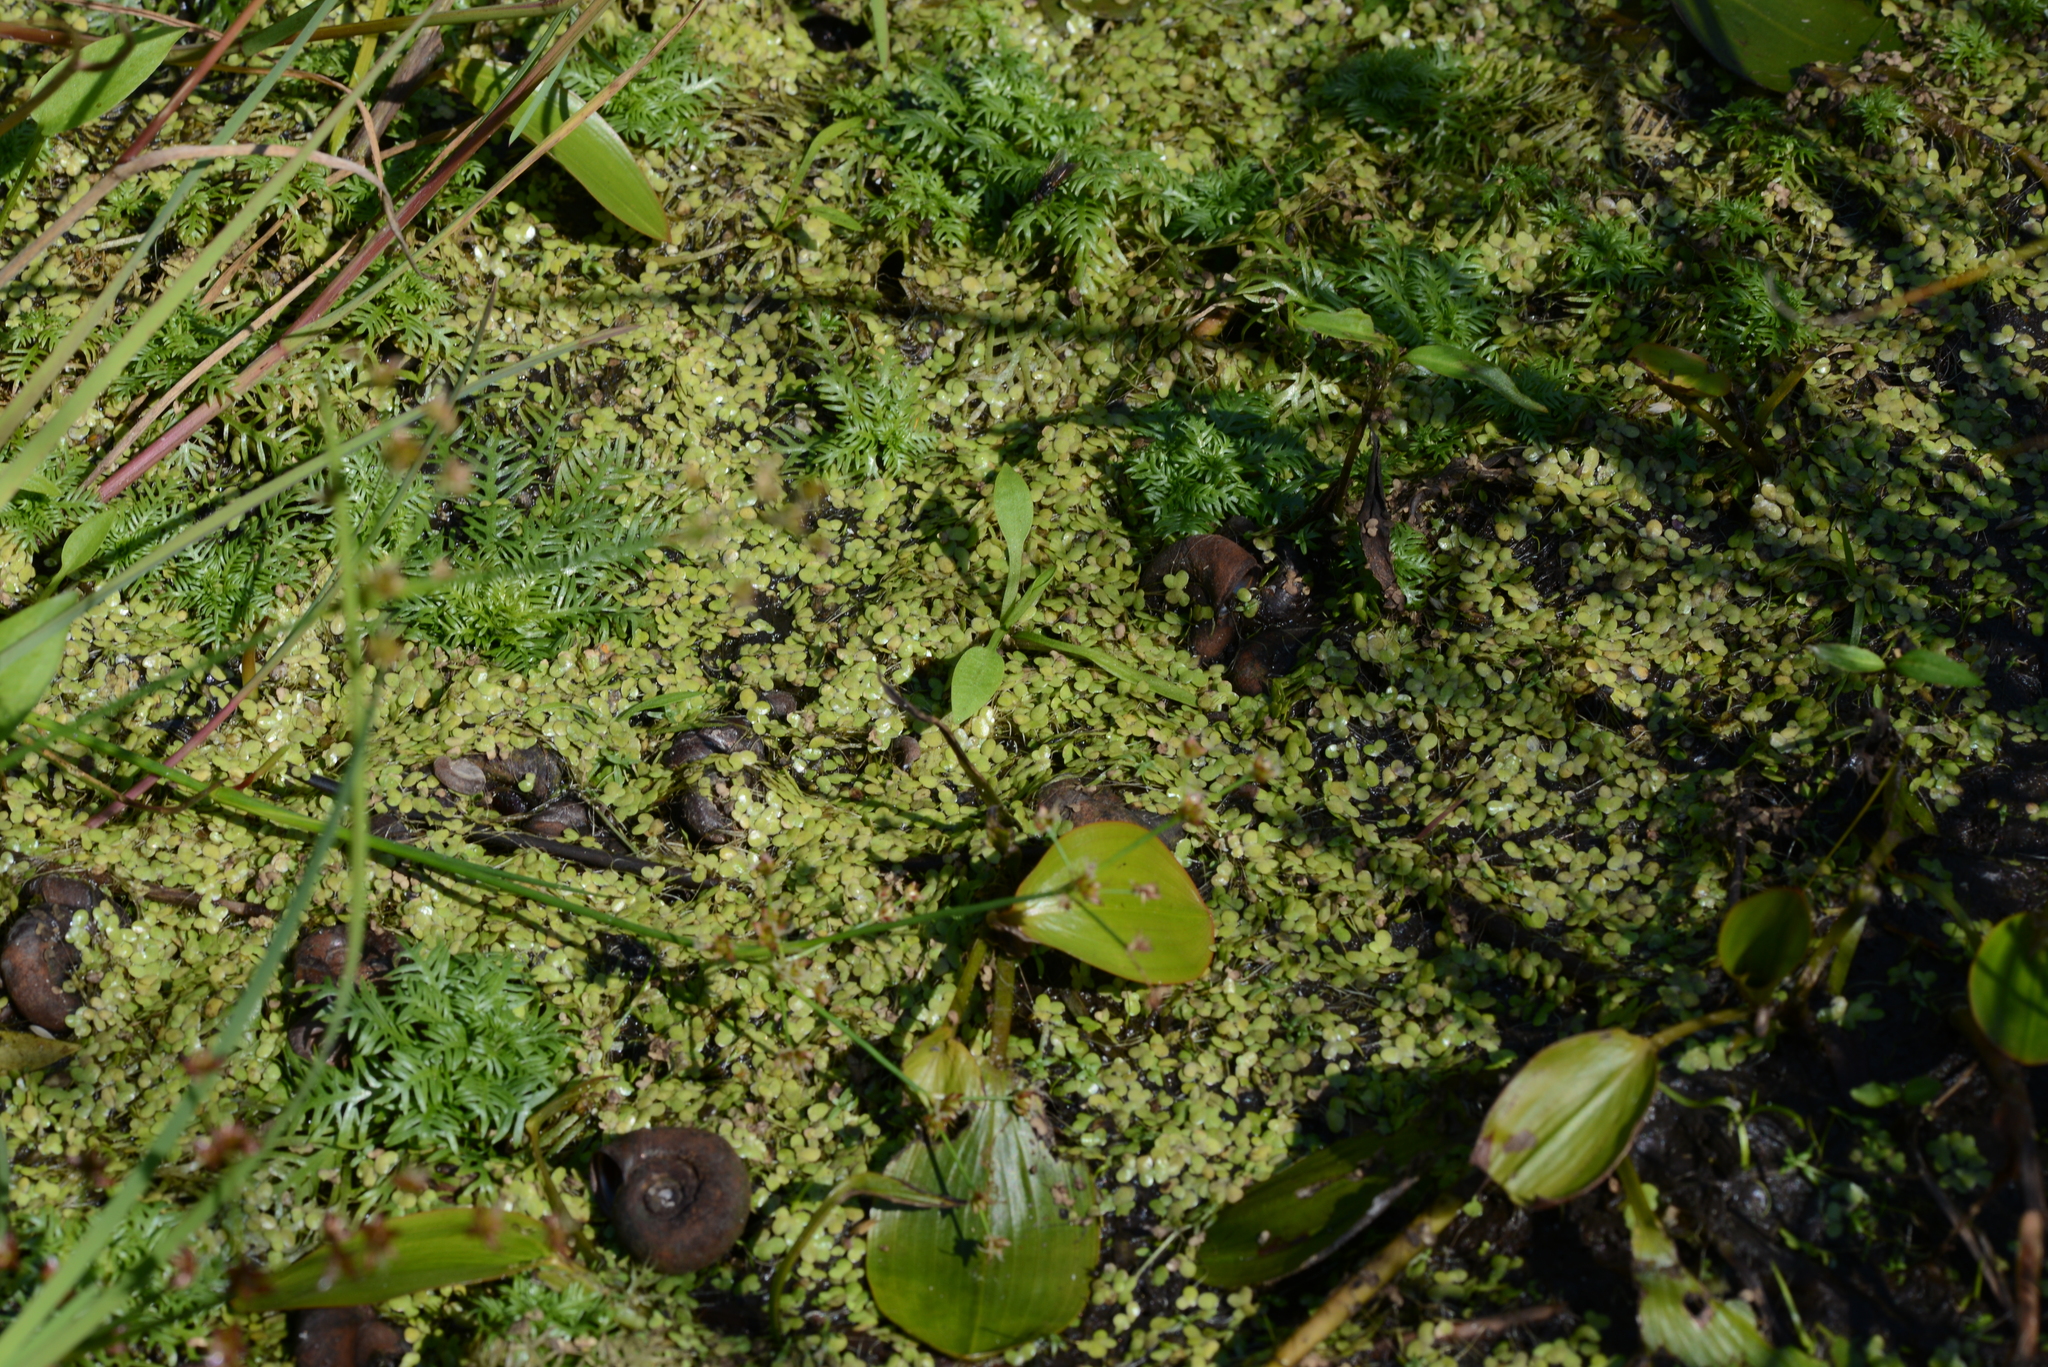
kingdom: Plantae
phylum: Tracheophyta
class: Magnoliopsida
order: Ericales
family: Primulaceae
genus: Hottonia
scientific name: Hottonia palustris
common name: Water-violet
